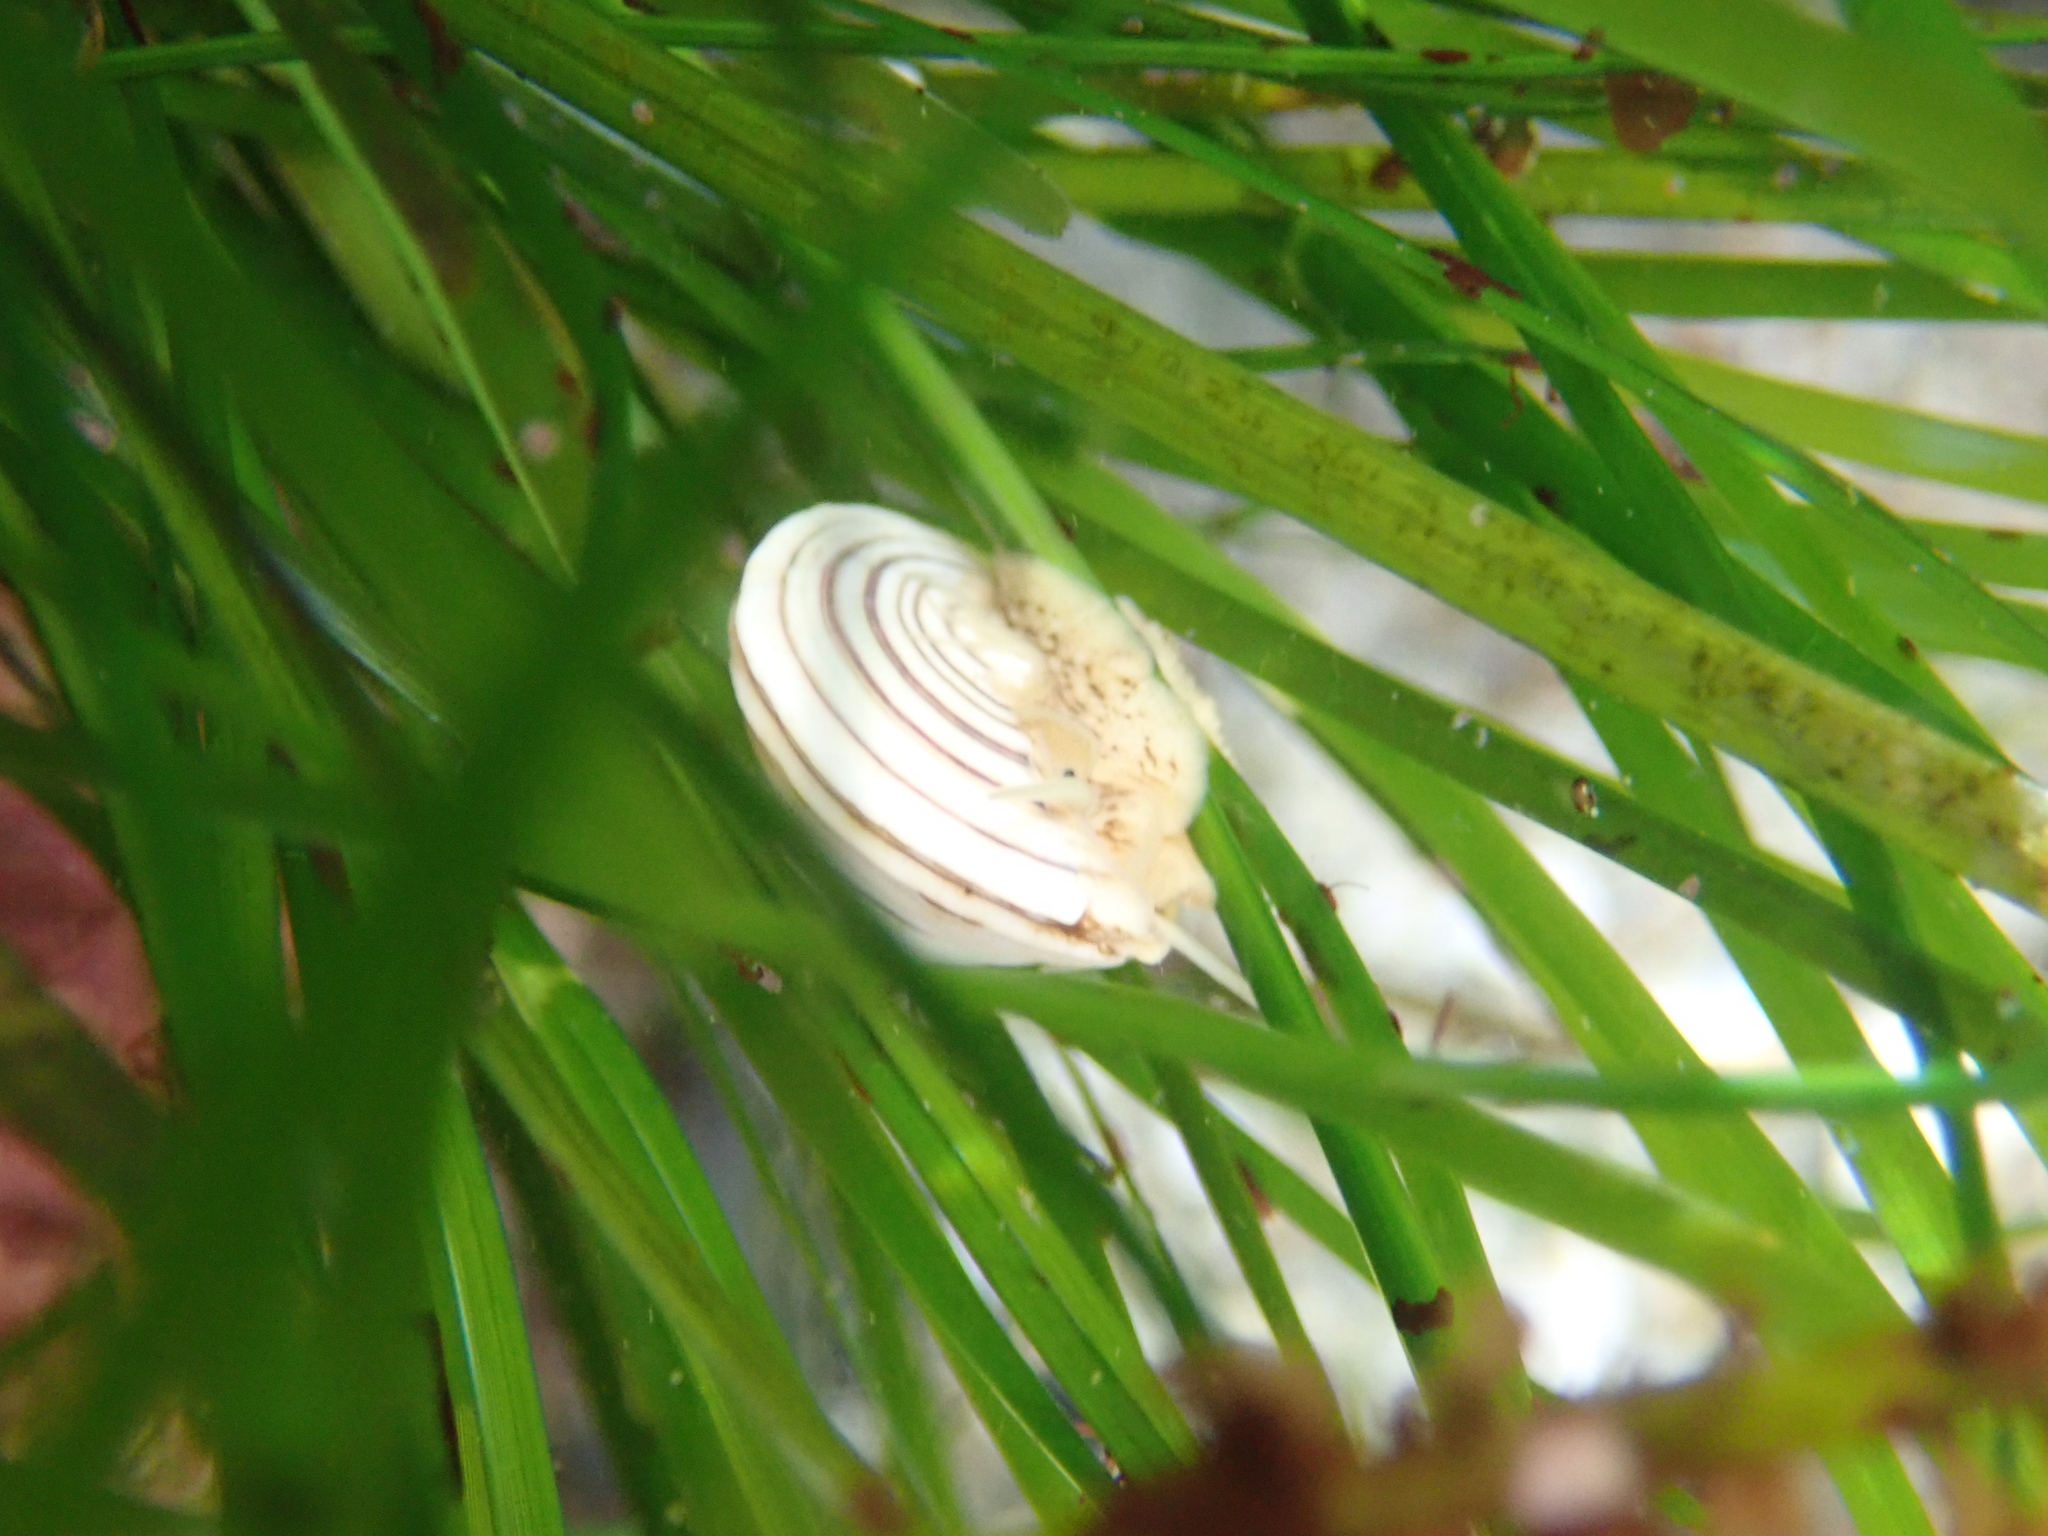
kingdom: Animalia
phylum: Mollusca
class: Gastropoda
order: Trochida
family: Calliostomatidae
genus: Calliostoma
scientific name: Calliostoma canaliculatum
